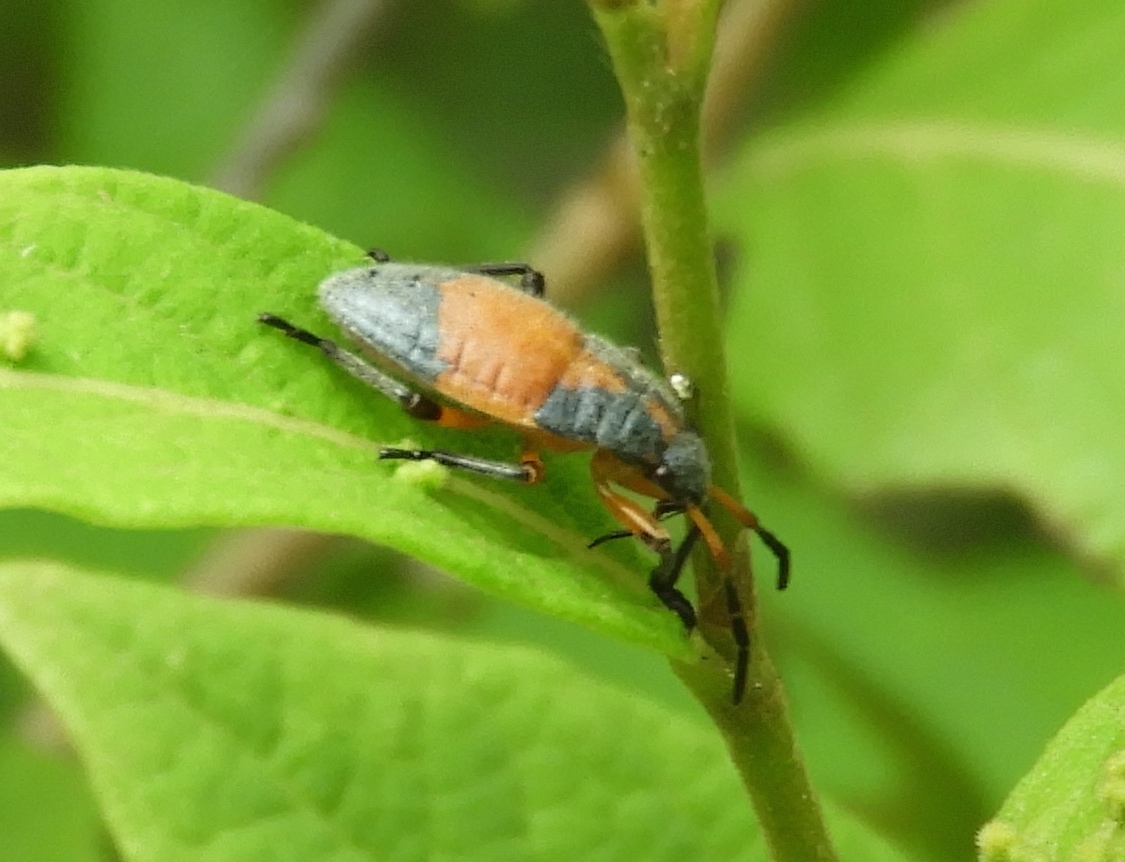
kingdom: Animalia
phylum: Arthropoda
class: Insecta
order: Hemiptera
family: Largidae
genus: Largus
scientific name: Largus
